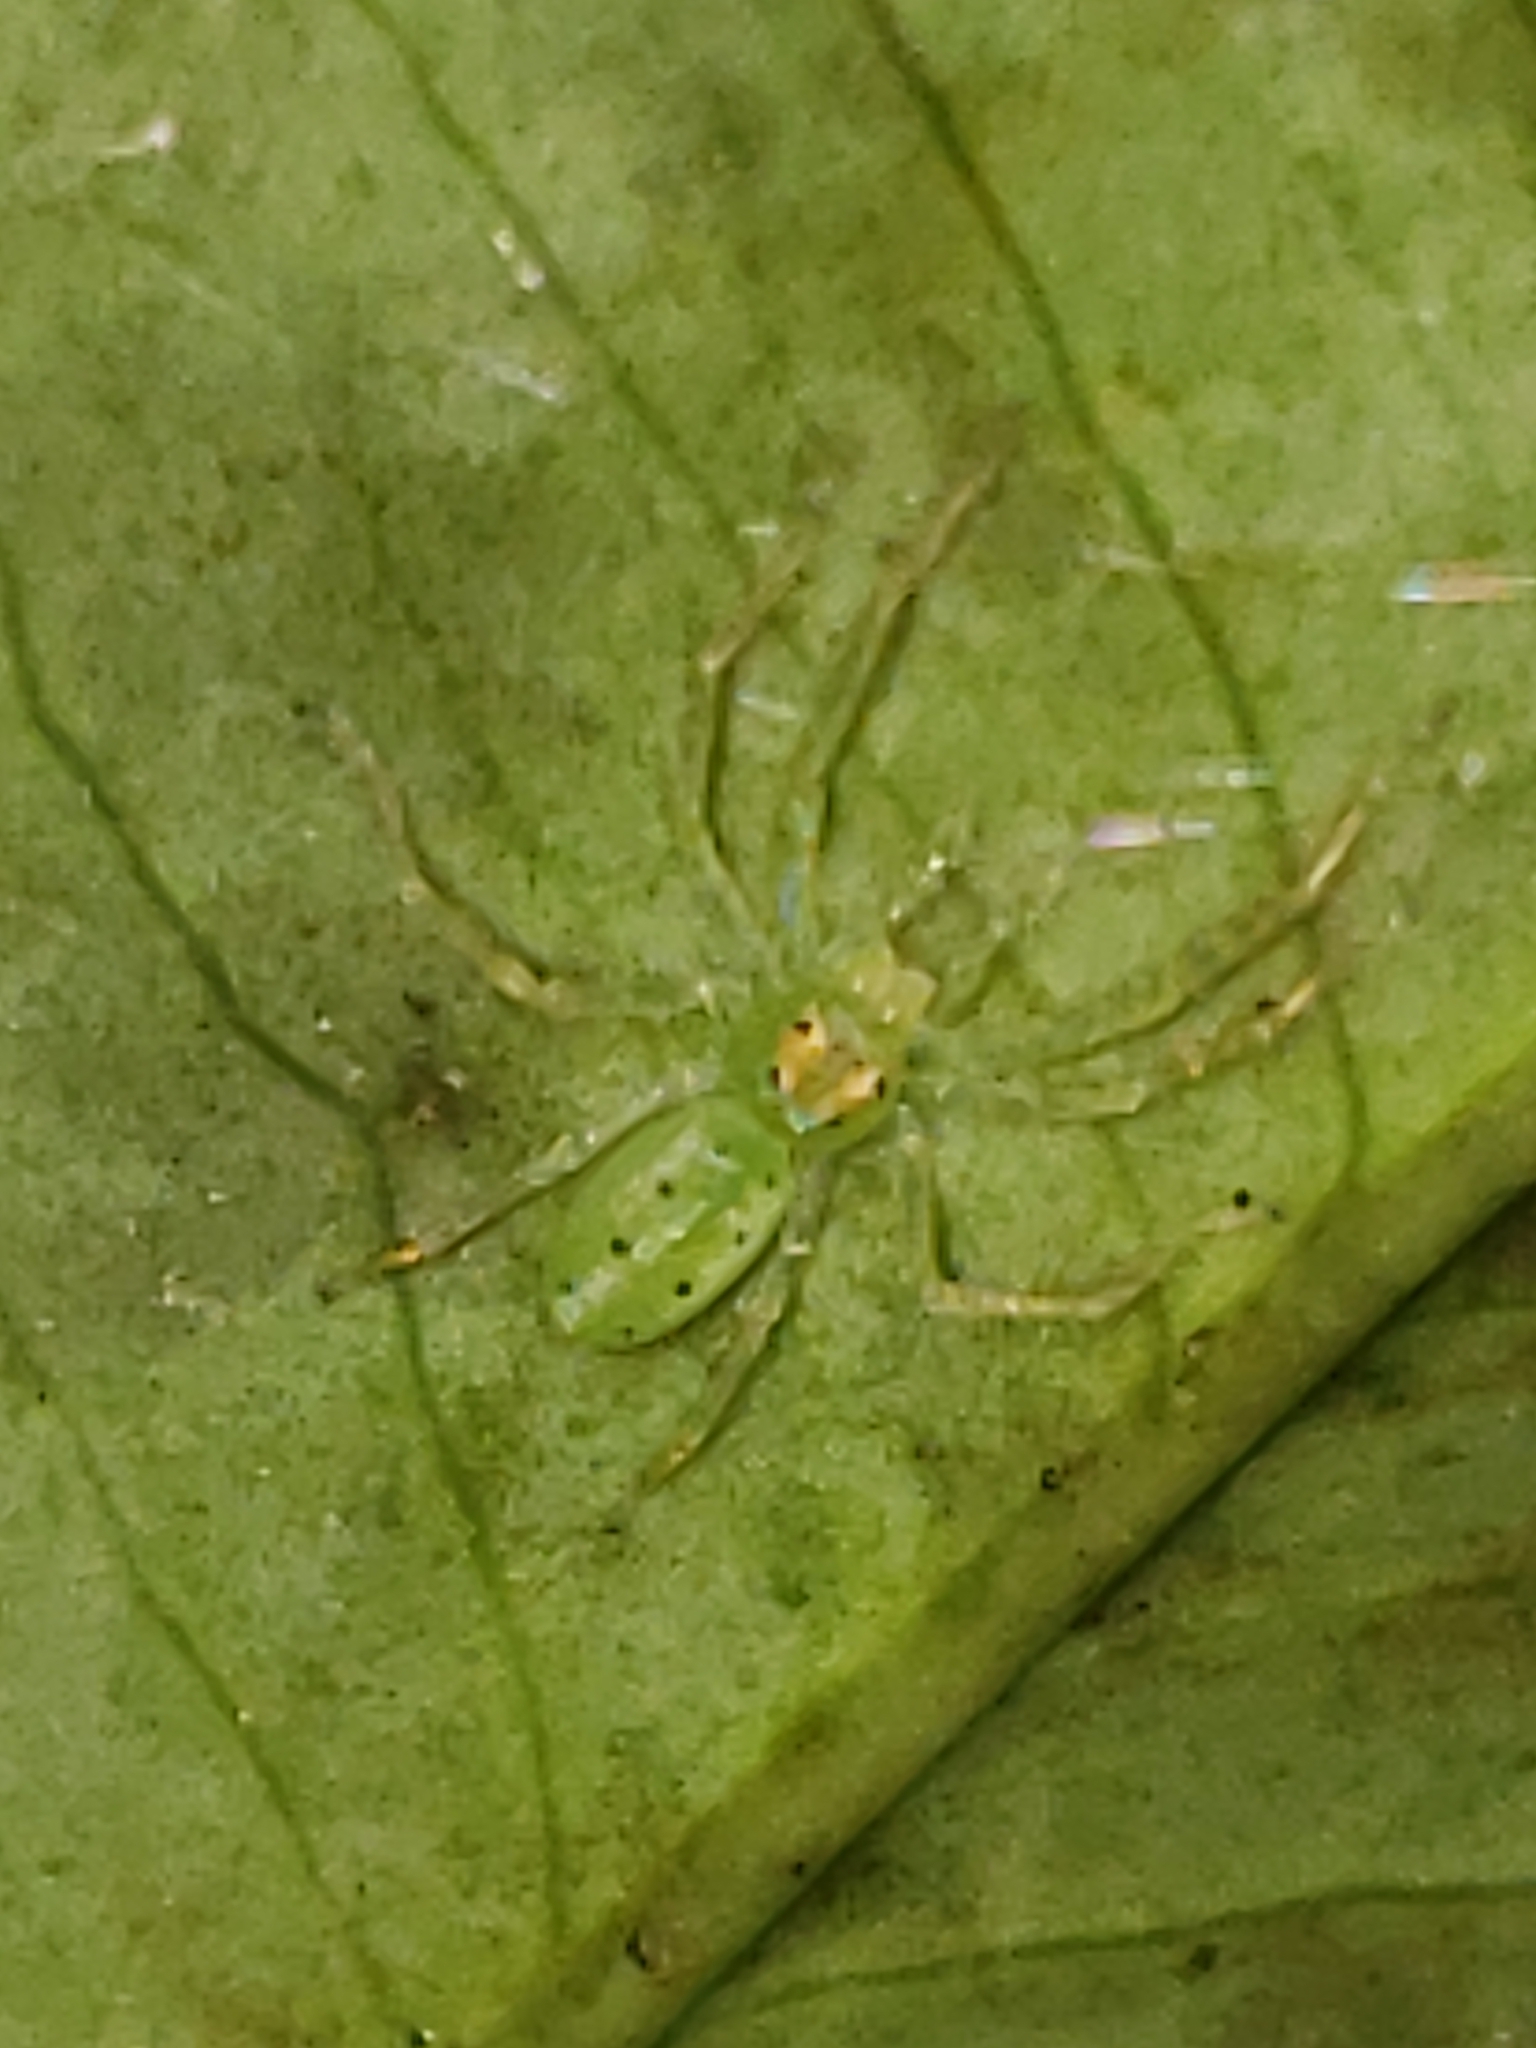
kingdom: Animalia
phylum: Arthropoda
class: Arachnida
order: Araneae
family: Salticidae
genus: Lyssomanes
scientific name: Lyssomanes viridis
